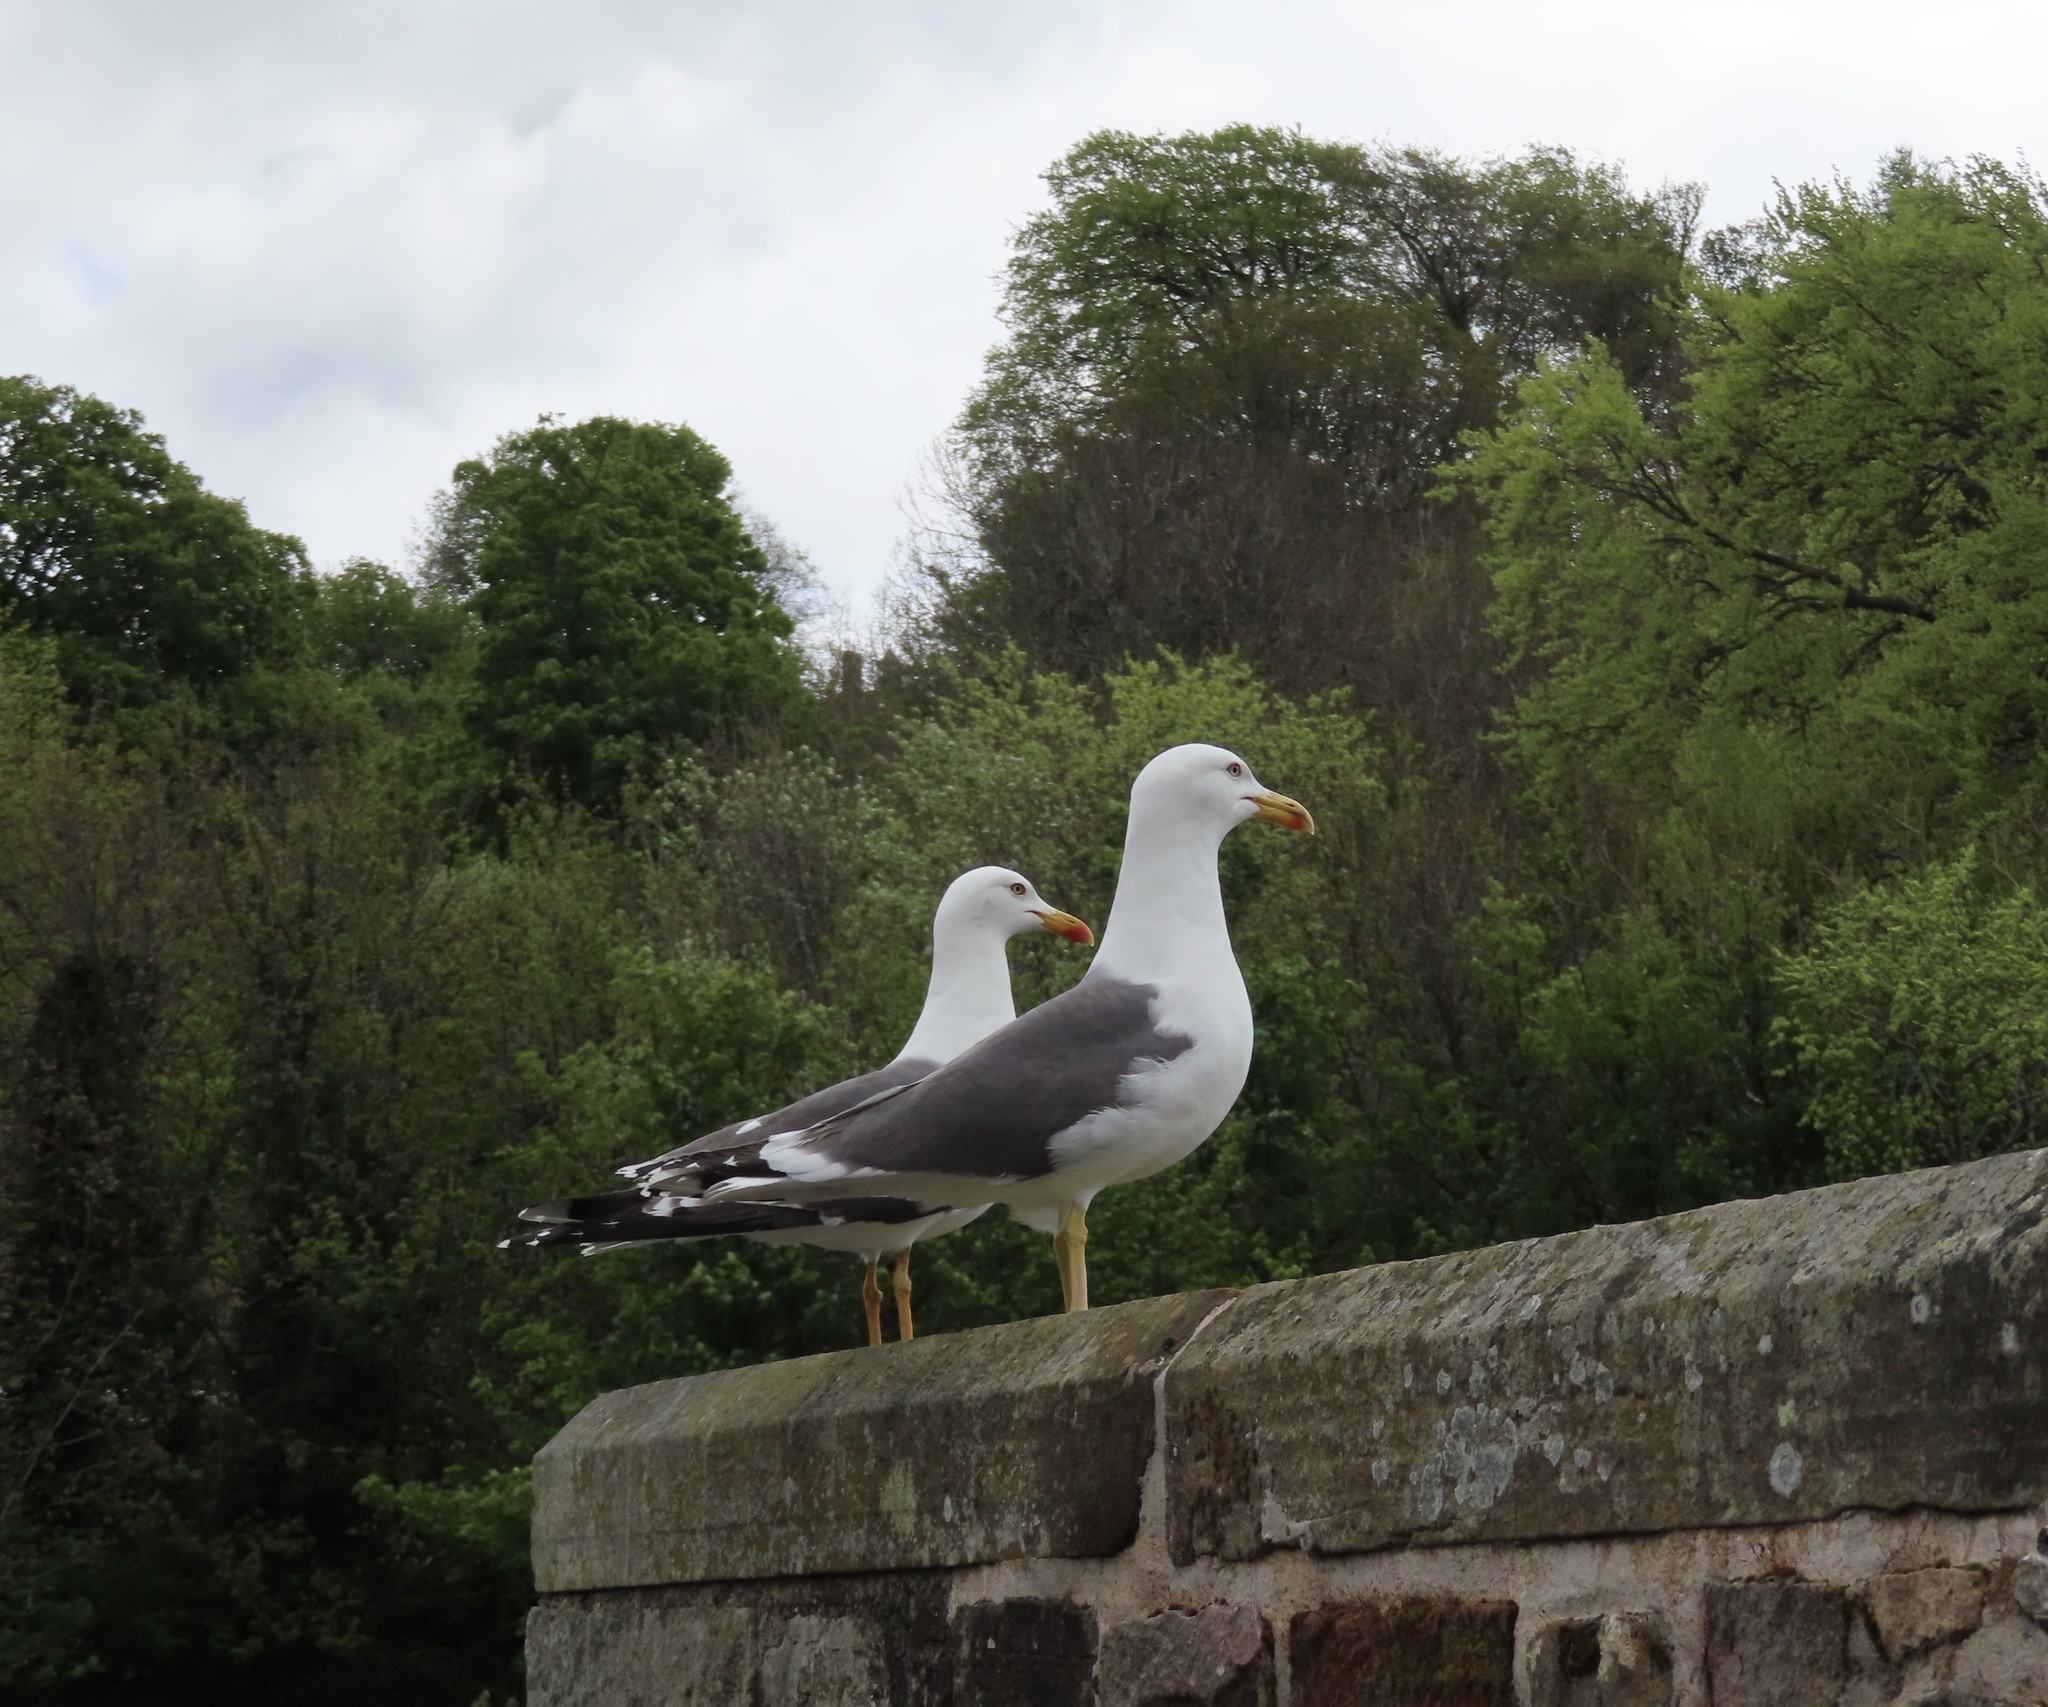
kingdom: Animalia
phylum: Chordata
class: Aves
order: Charadriiformes
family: Laridae
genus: Larus
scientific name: Larus fuscus
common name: Lesser black-backed gull
